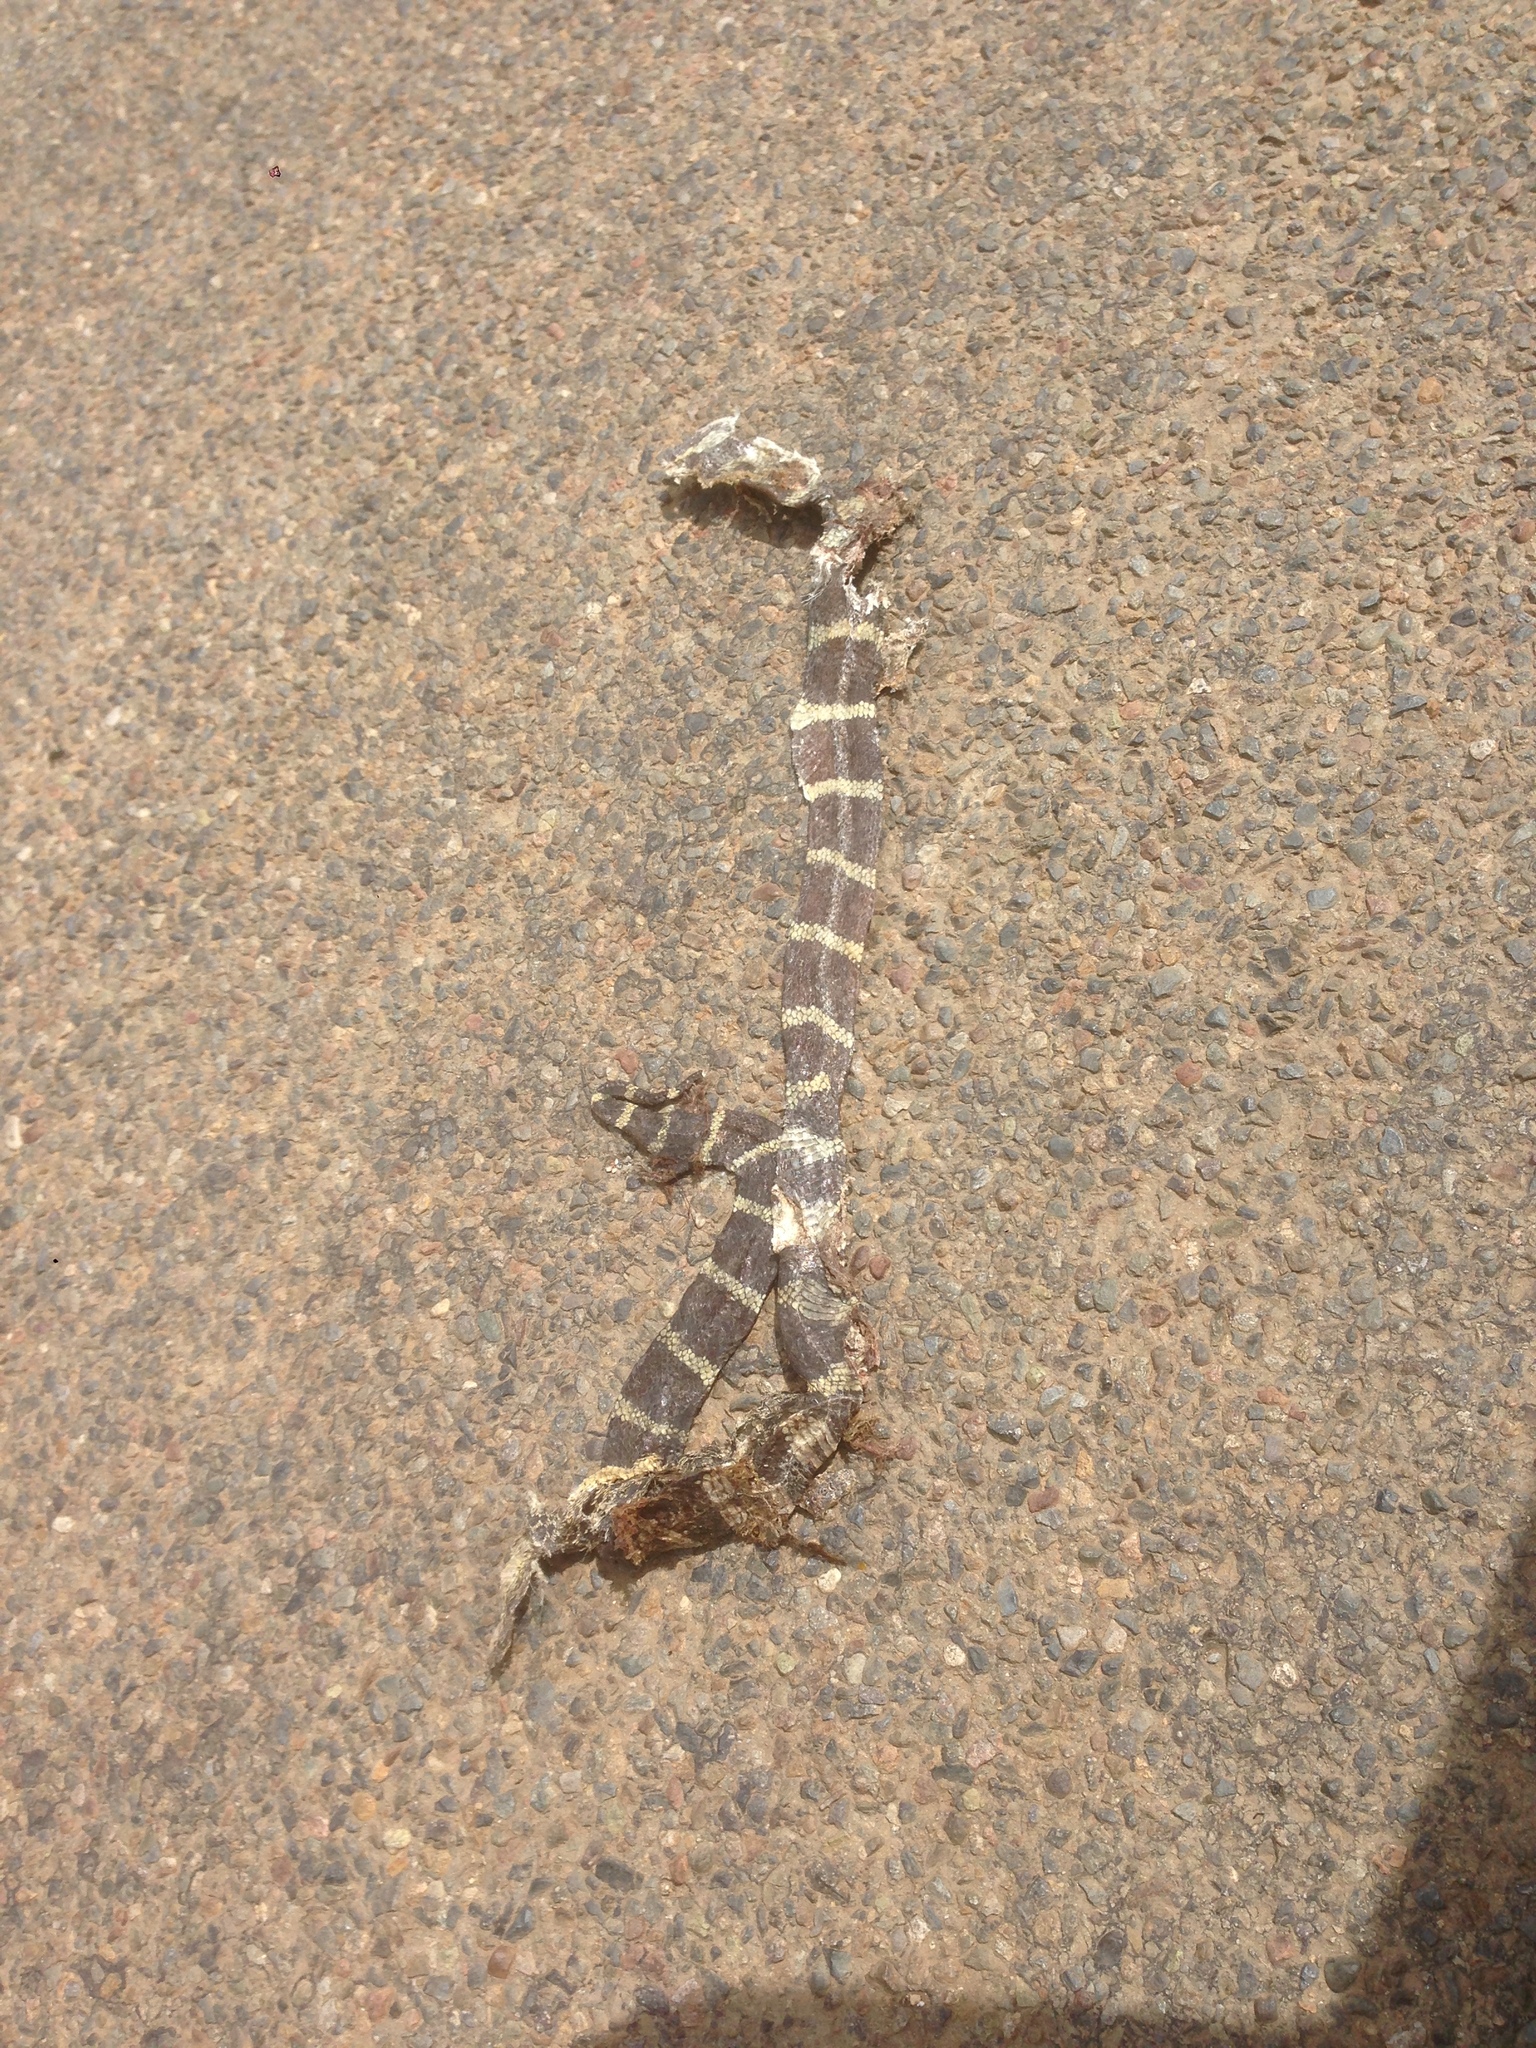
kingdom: Animalia
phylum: Chordata
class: Squamata
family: Colubridae
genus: Lampropeltis
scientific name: Lampropeltis californiae
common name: California kingsnake
